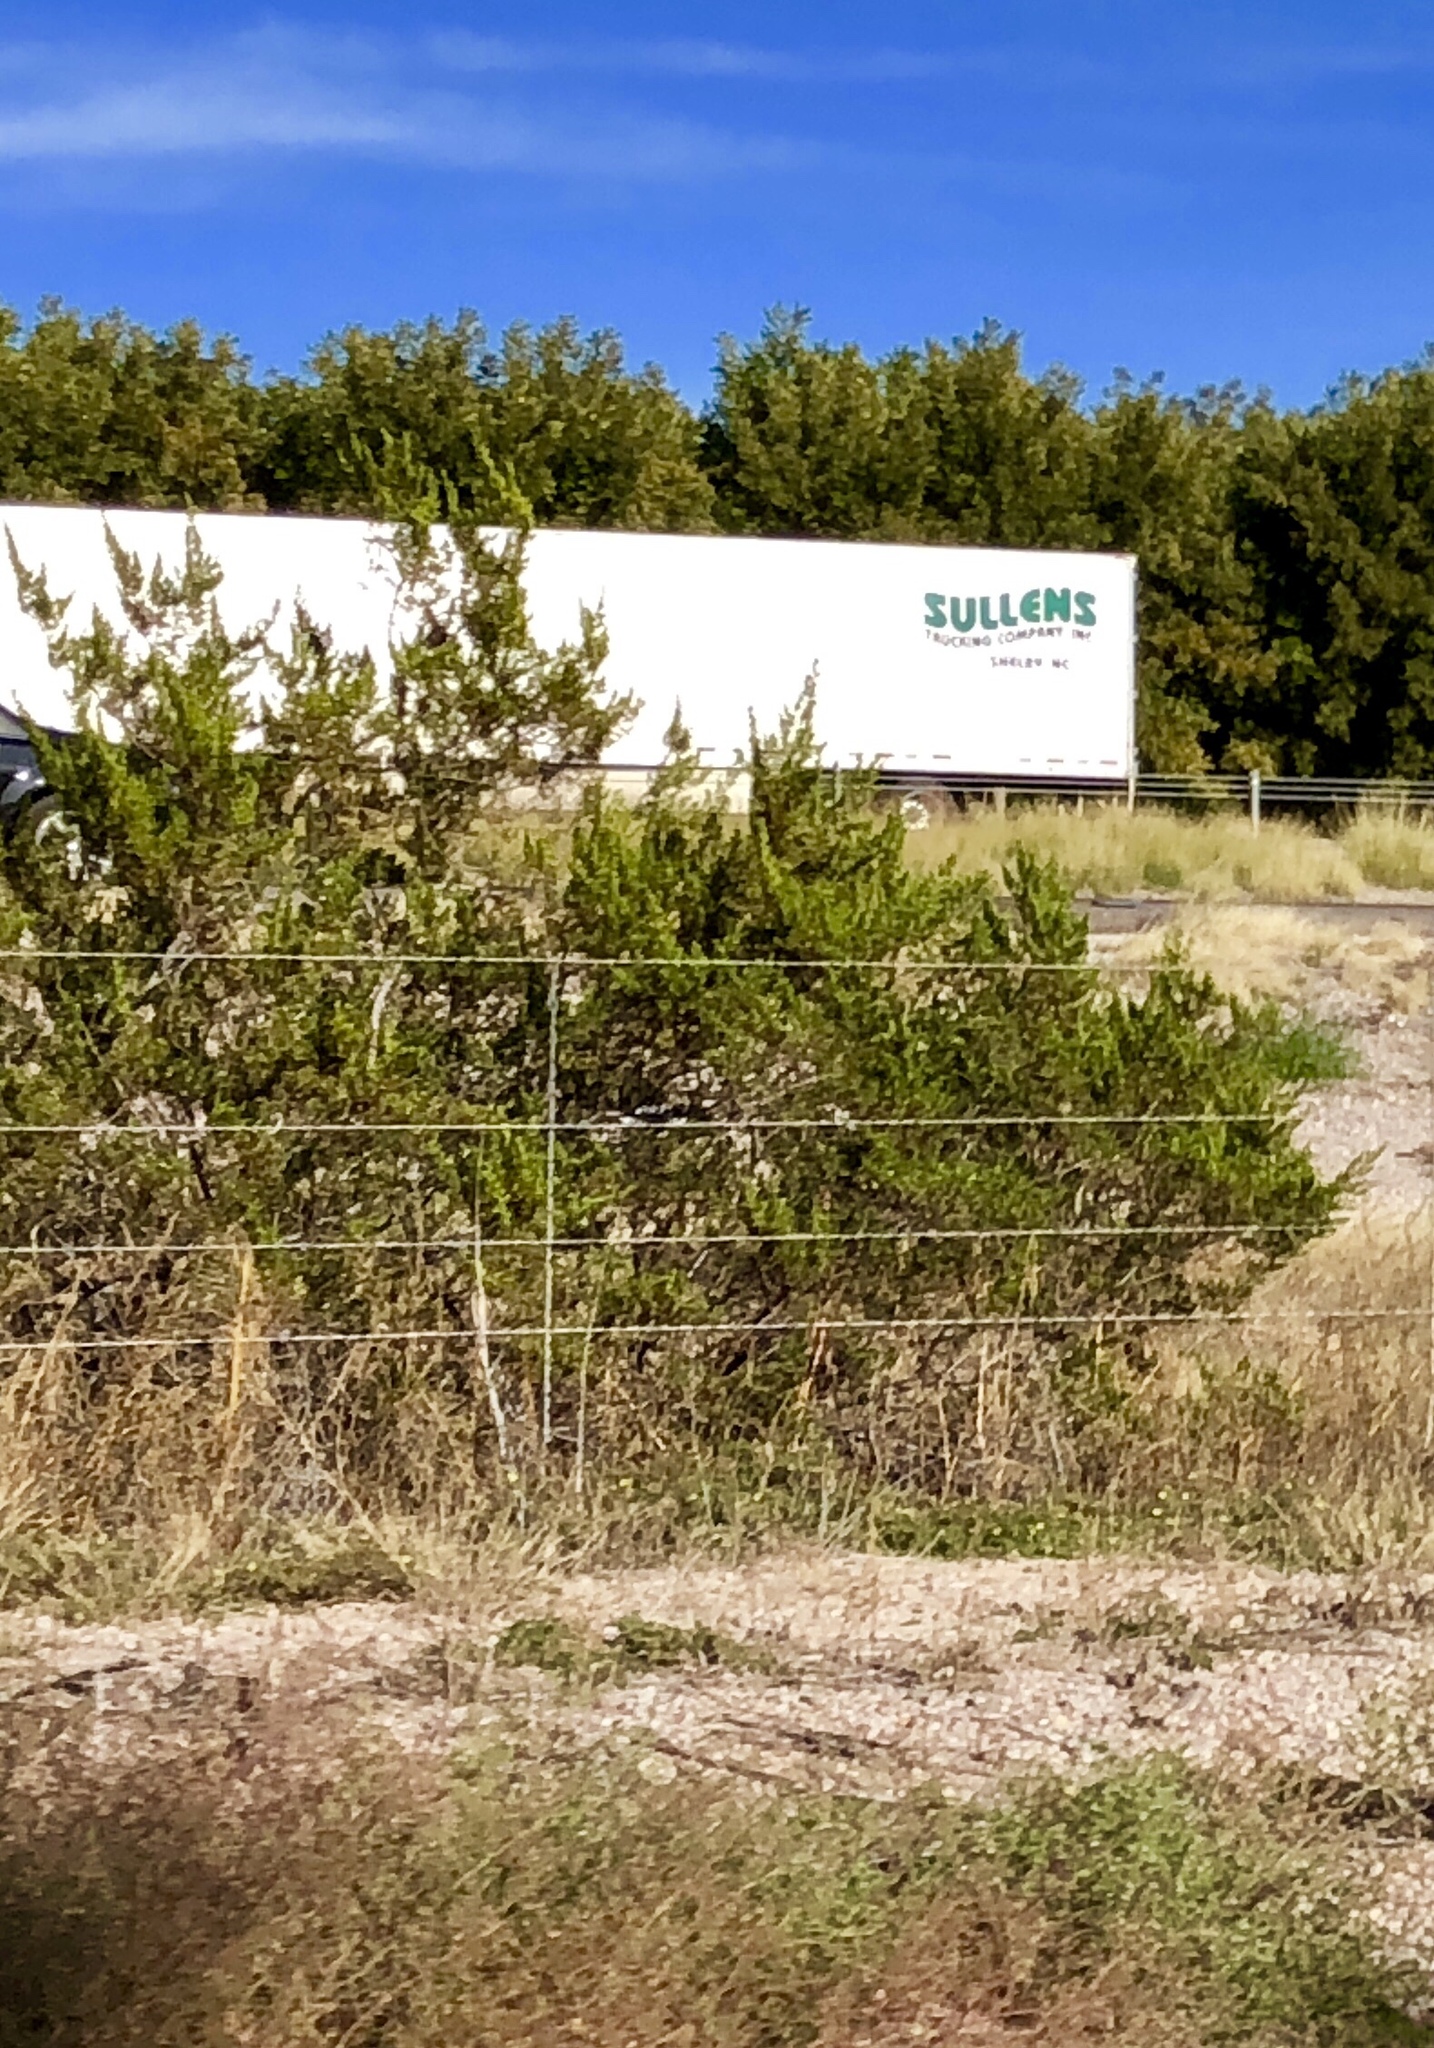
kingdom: Plantae
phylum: Tracheophyta
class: Magnoliopsida
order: Zygophyllales
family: Zygophyllaceae
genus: Larrea
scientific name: Larrea tridentata
